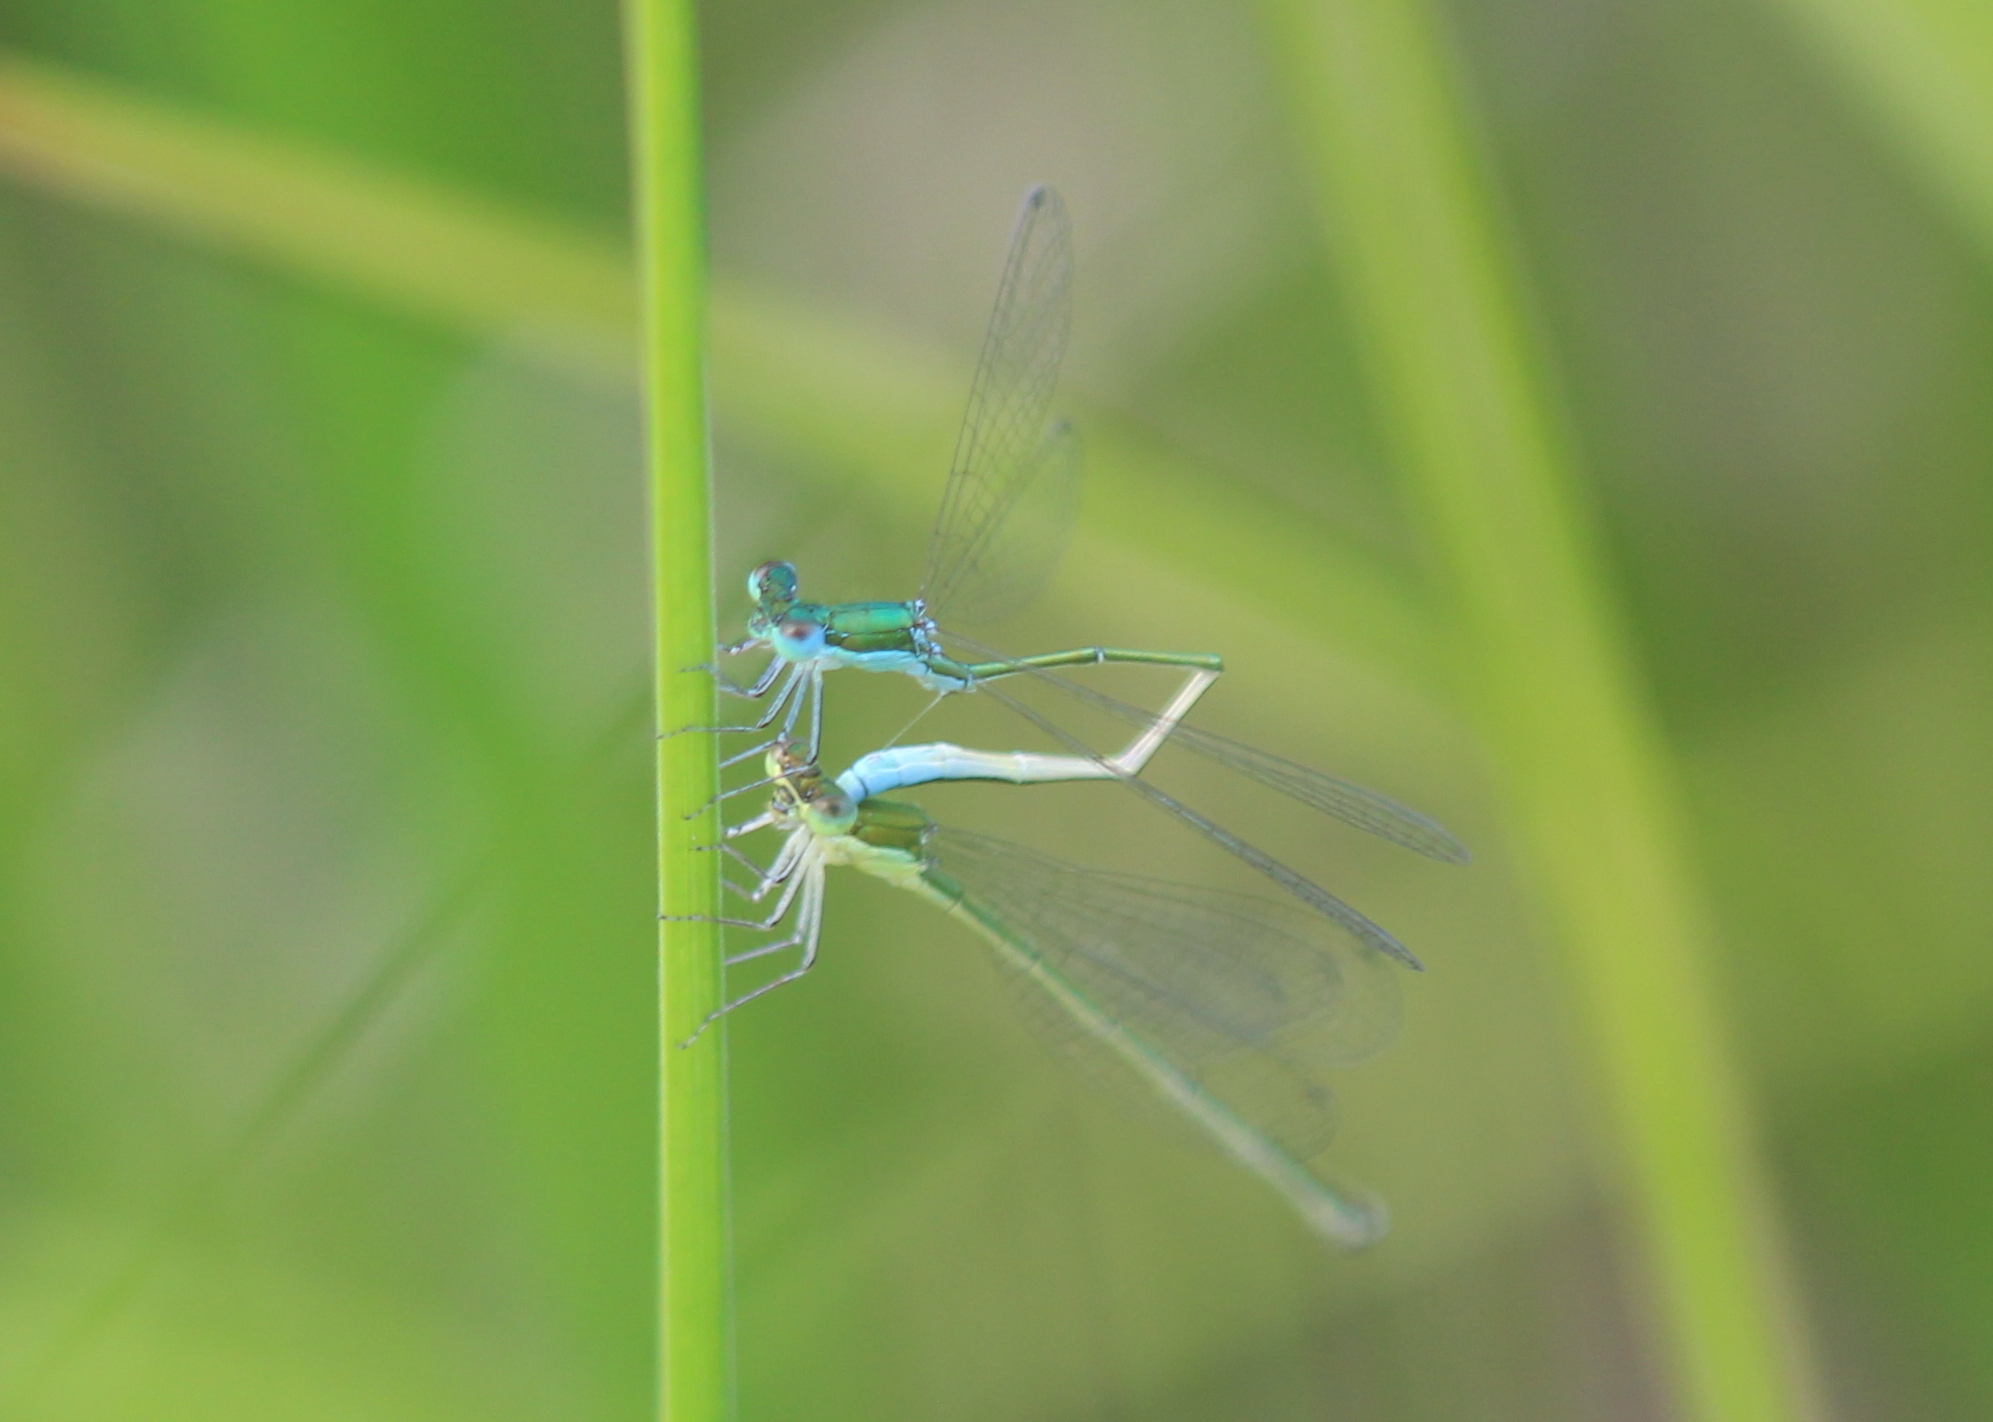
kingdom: Animalia
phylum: Arthropoda
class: Insecta
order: Odonata
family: Coenagrionidae
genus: Nehalennia
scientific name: Nehalennia irene
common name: Sedge sprite
